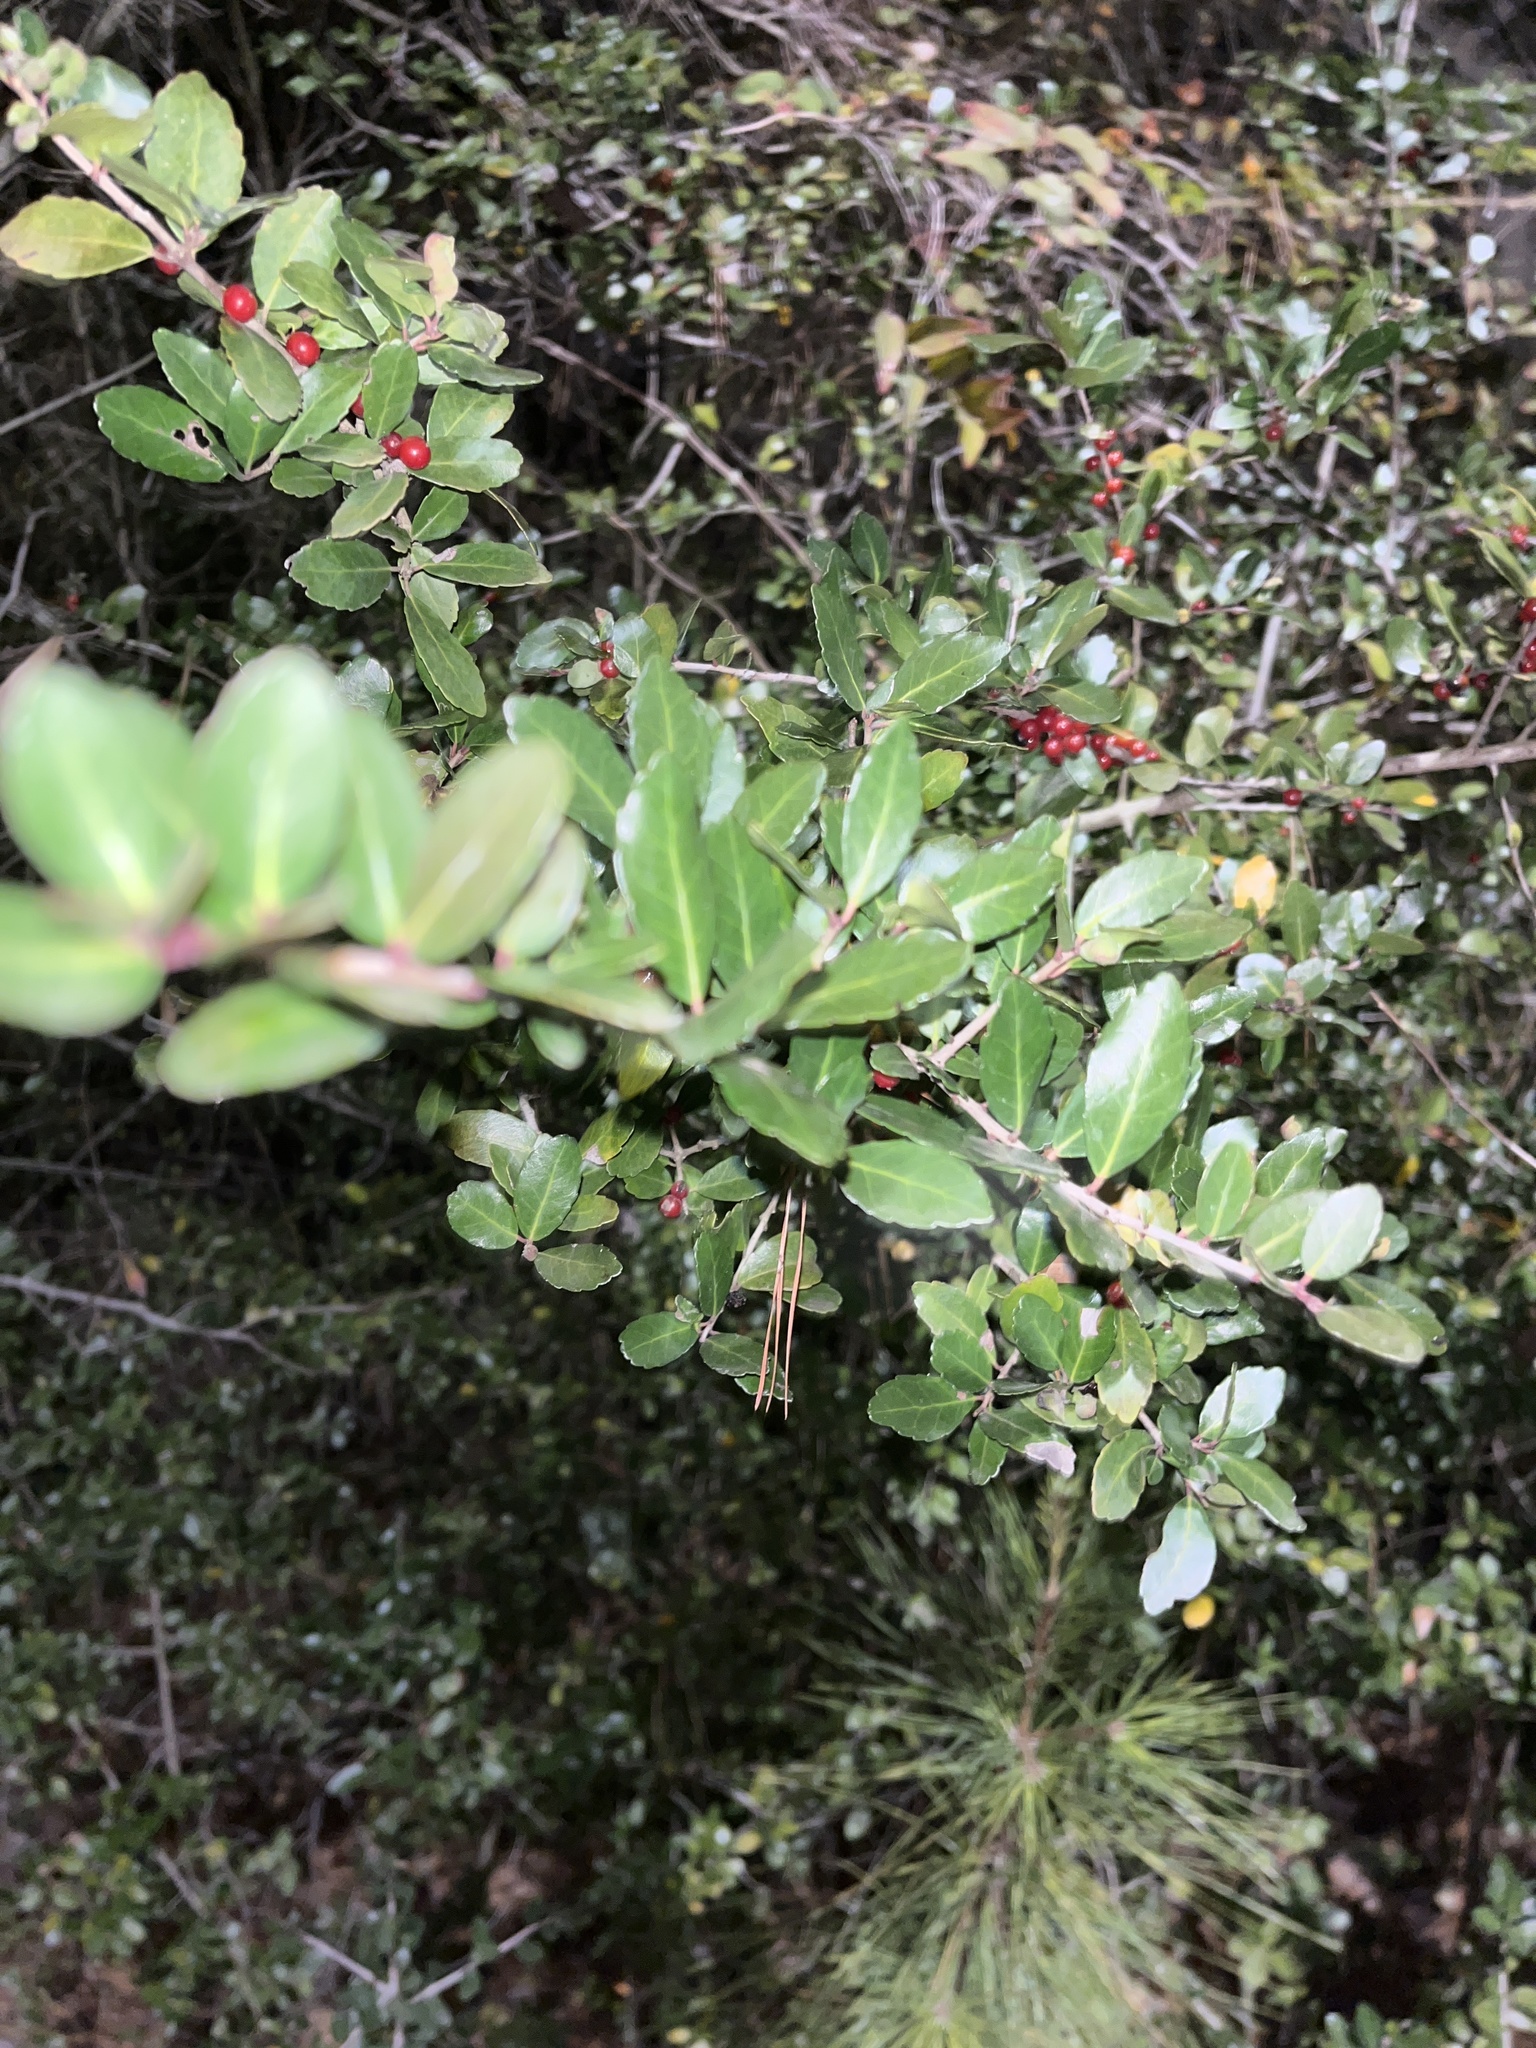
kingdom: Plantae
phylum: Tracheophyta
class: Magnoliopsida
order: Aquifoliales
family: Aquifoliaceae
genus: Ilex
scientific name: Ilex vomitoria
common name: Yaupon holly
